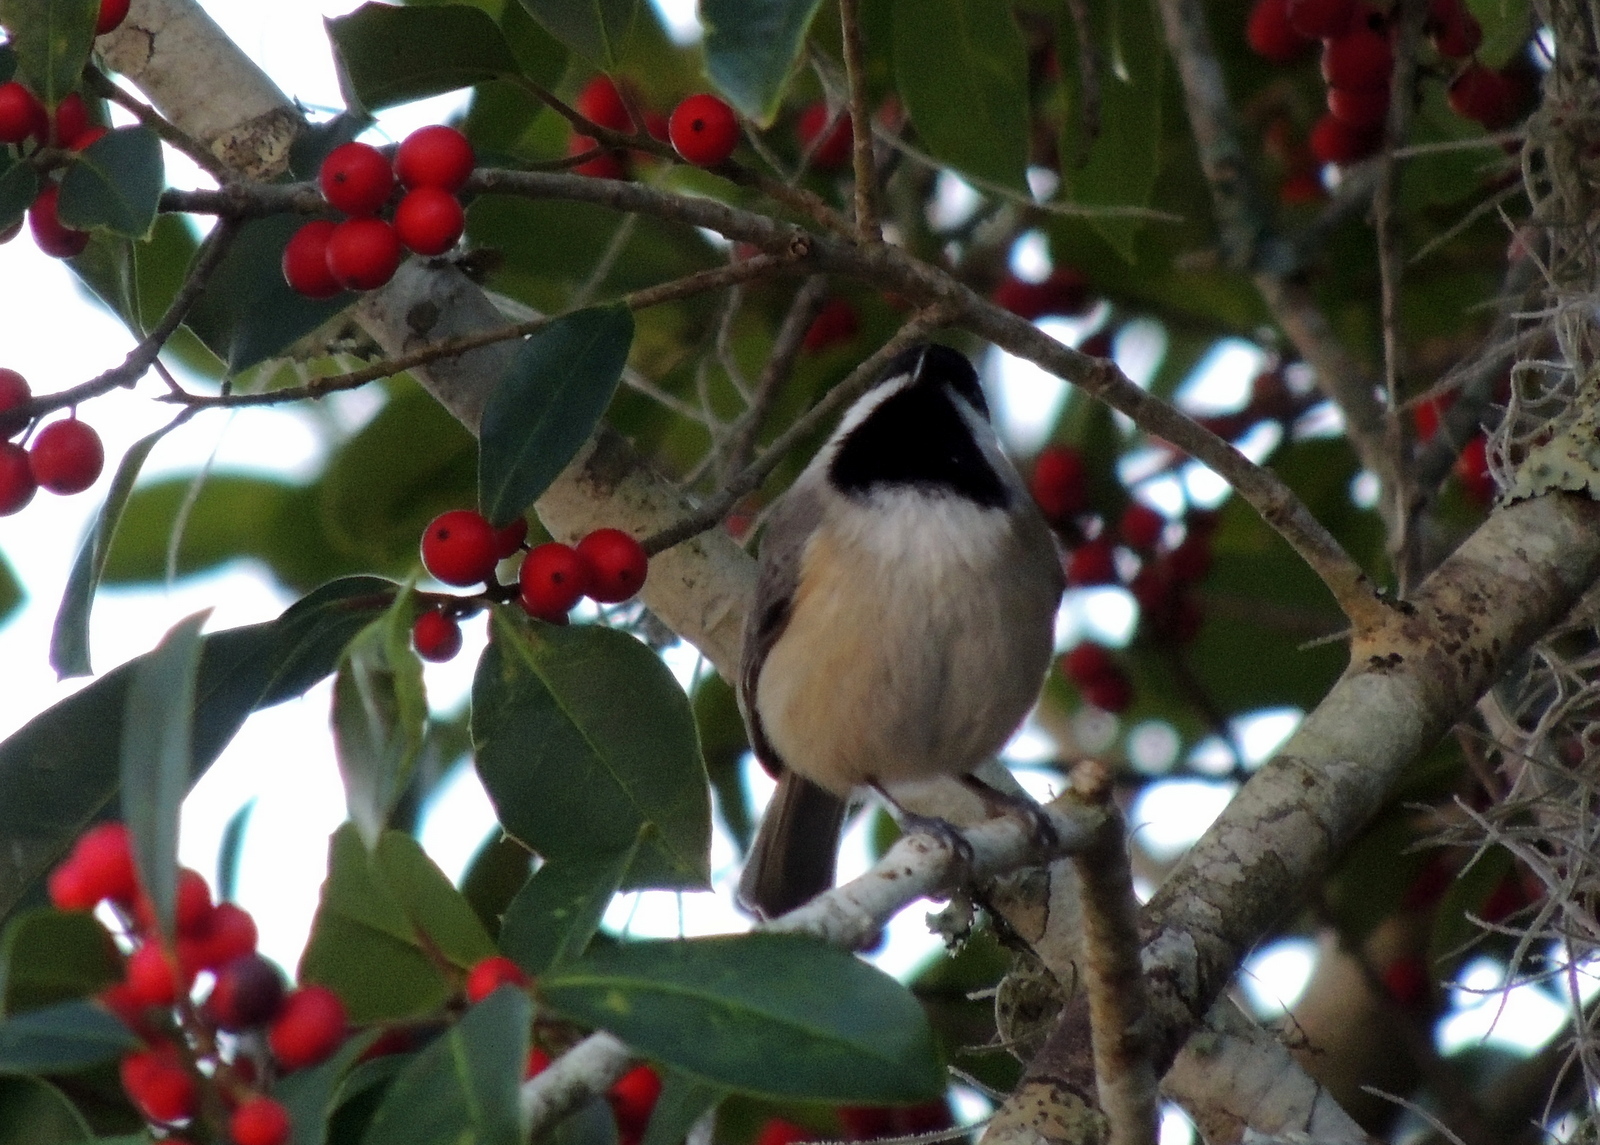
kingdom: Animalia
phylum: Chordata
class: Aves
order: Passeriformes
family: Paridae
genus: Poecile
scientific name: Poecile carolinensis
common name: Carolina chickadee
